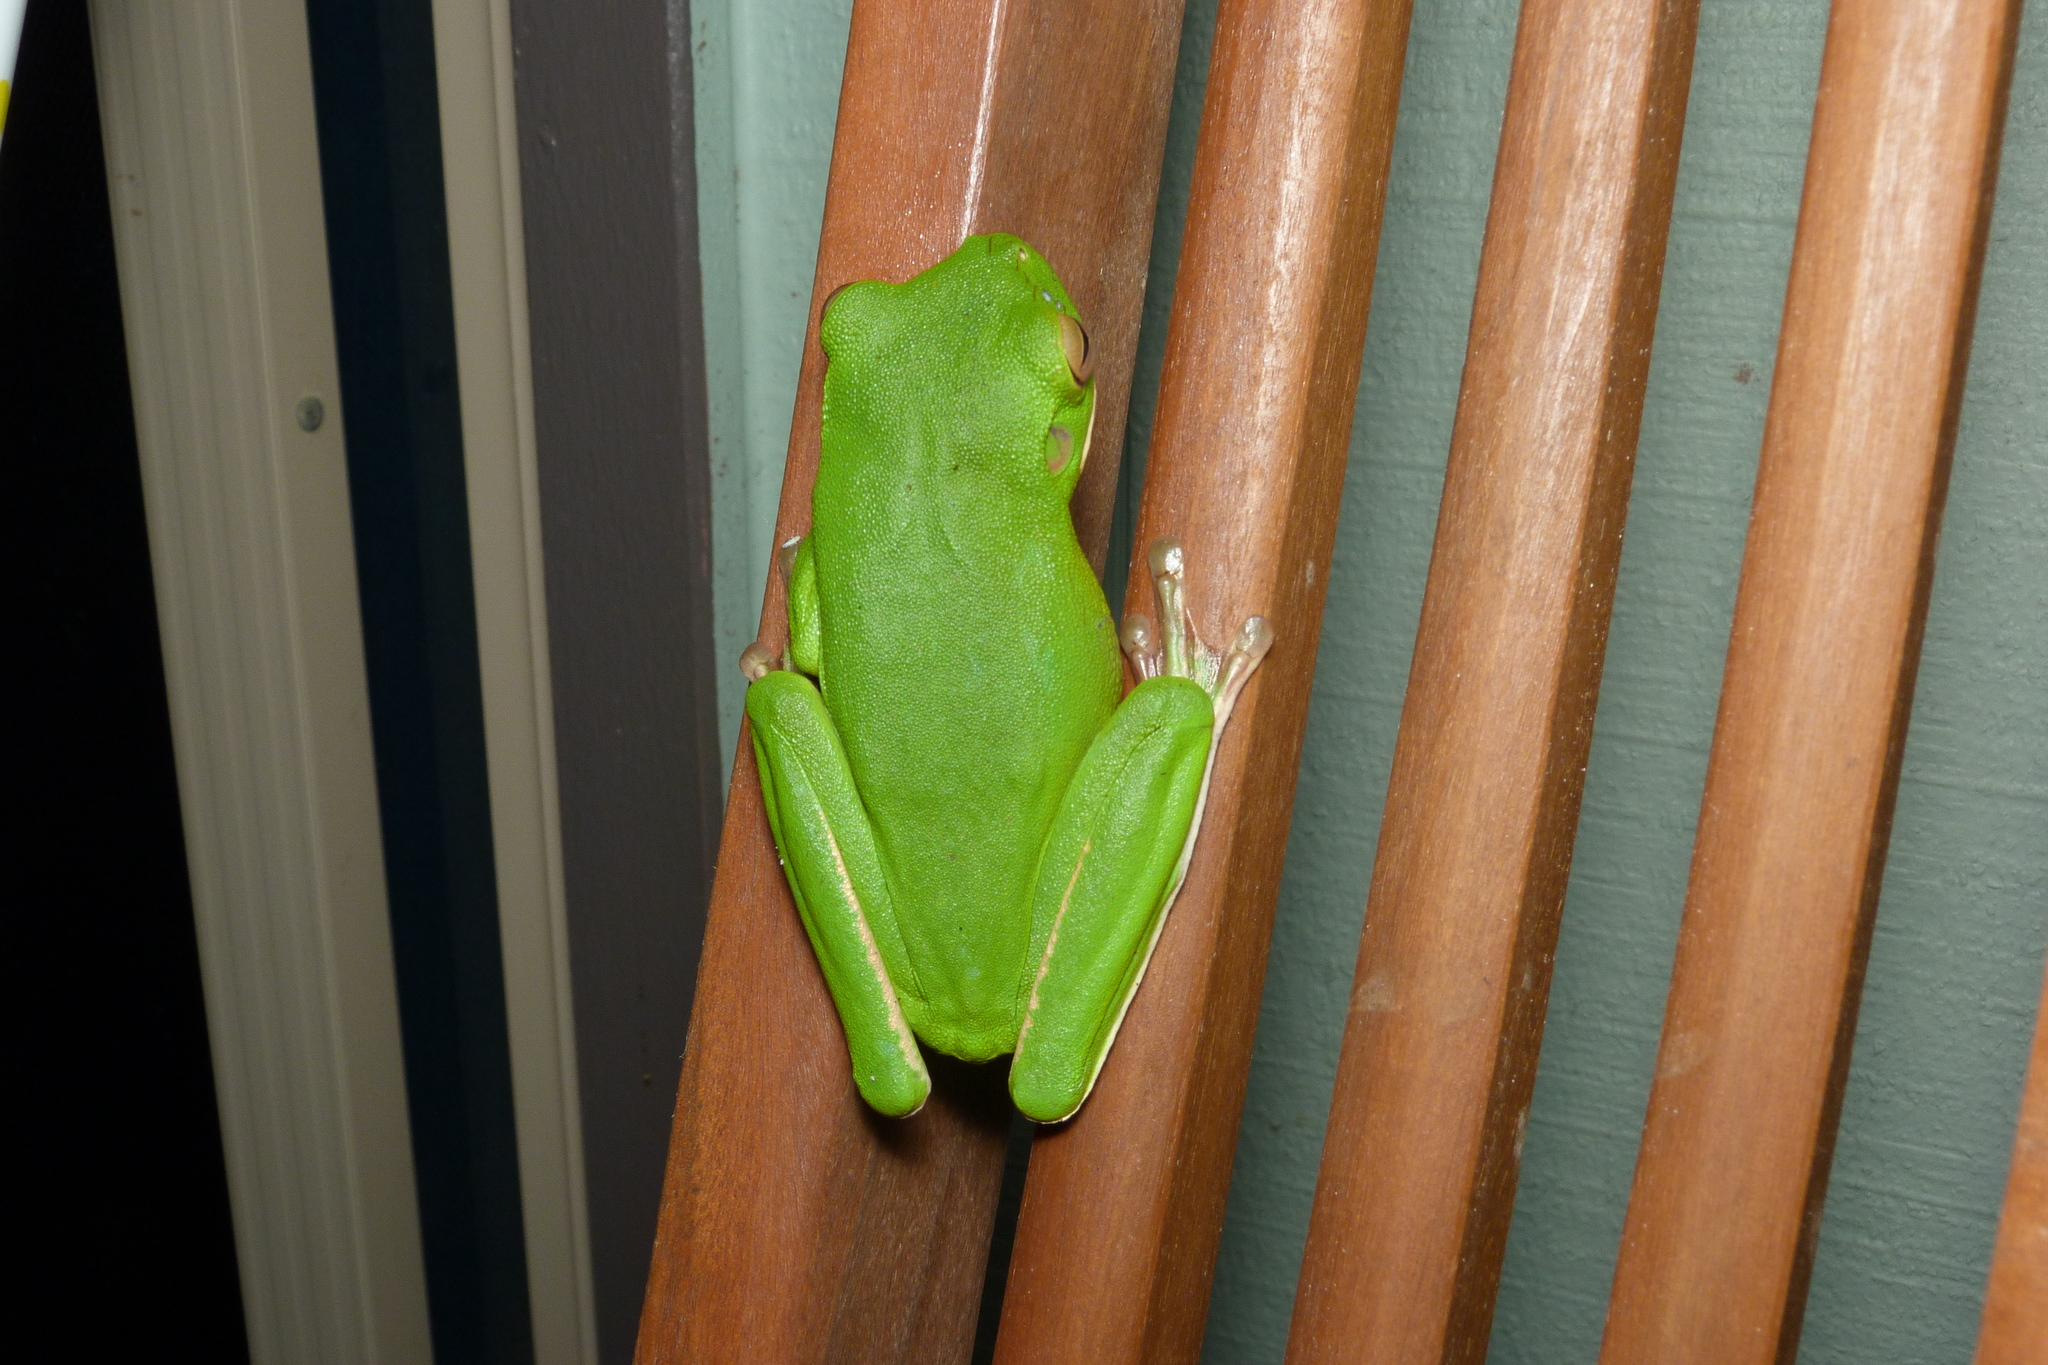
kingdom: Animalia
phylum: Chordata
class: Amphibia
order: Anura
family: Pelodryadidae
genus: Nyctimystes
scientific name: Nyctimystes infrafrenatus
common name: Australian giant treefrog
